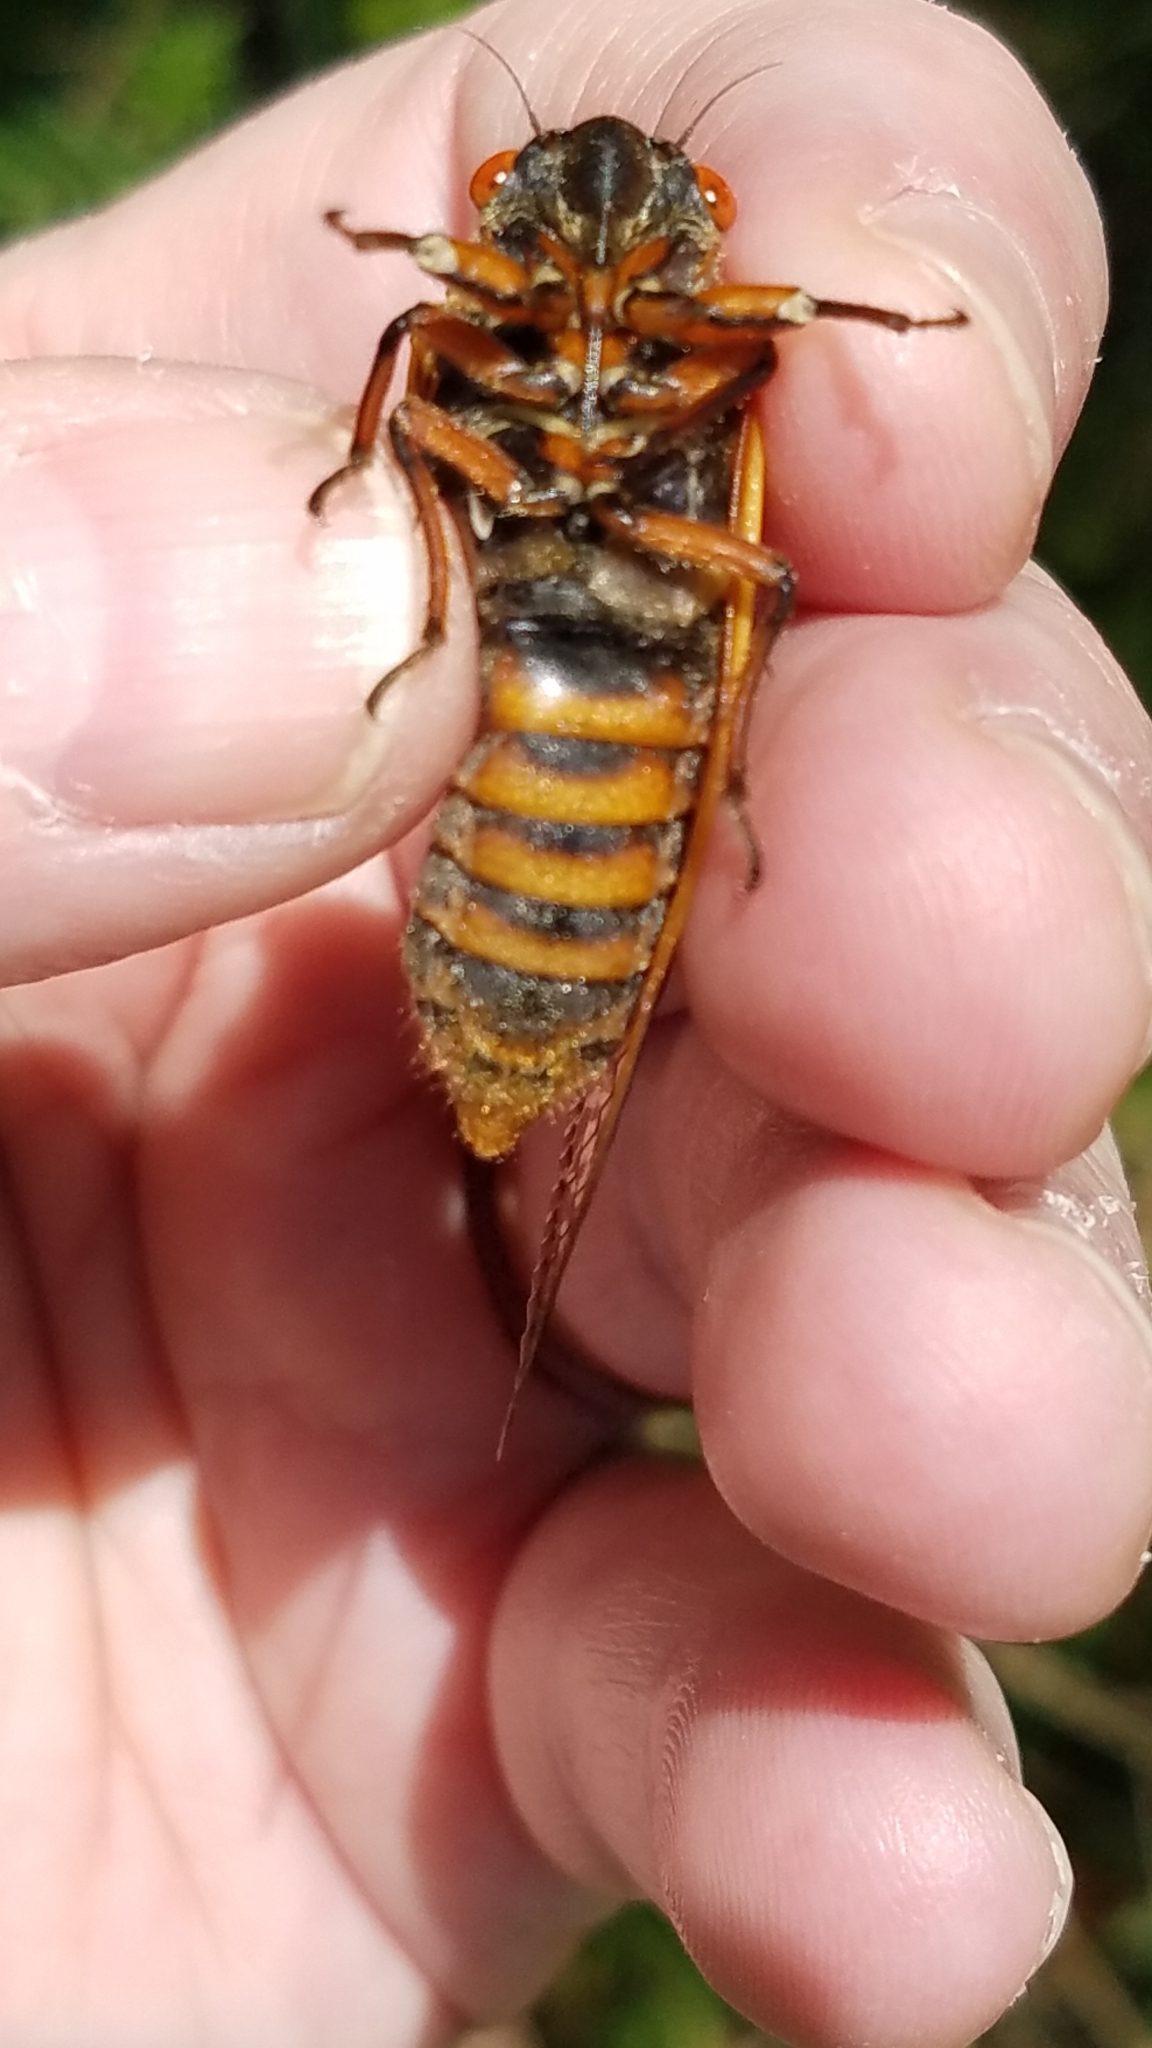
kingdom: Animalia
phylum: Arthropoda
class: Insecta
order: Hemiptera
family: Cicadidae
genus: Magicicada
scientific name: Magicicada septendecim
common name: Periodical cicada
